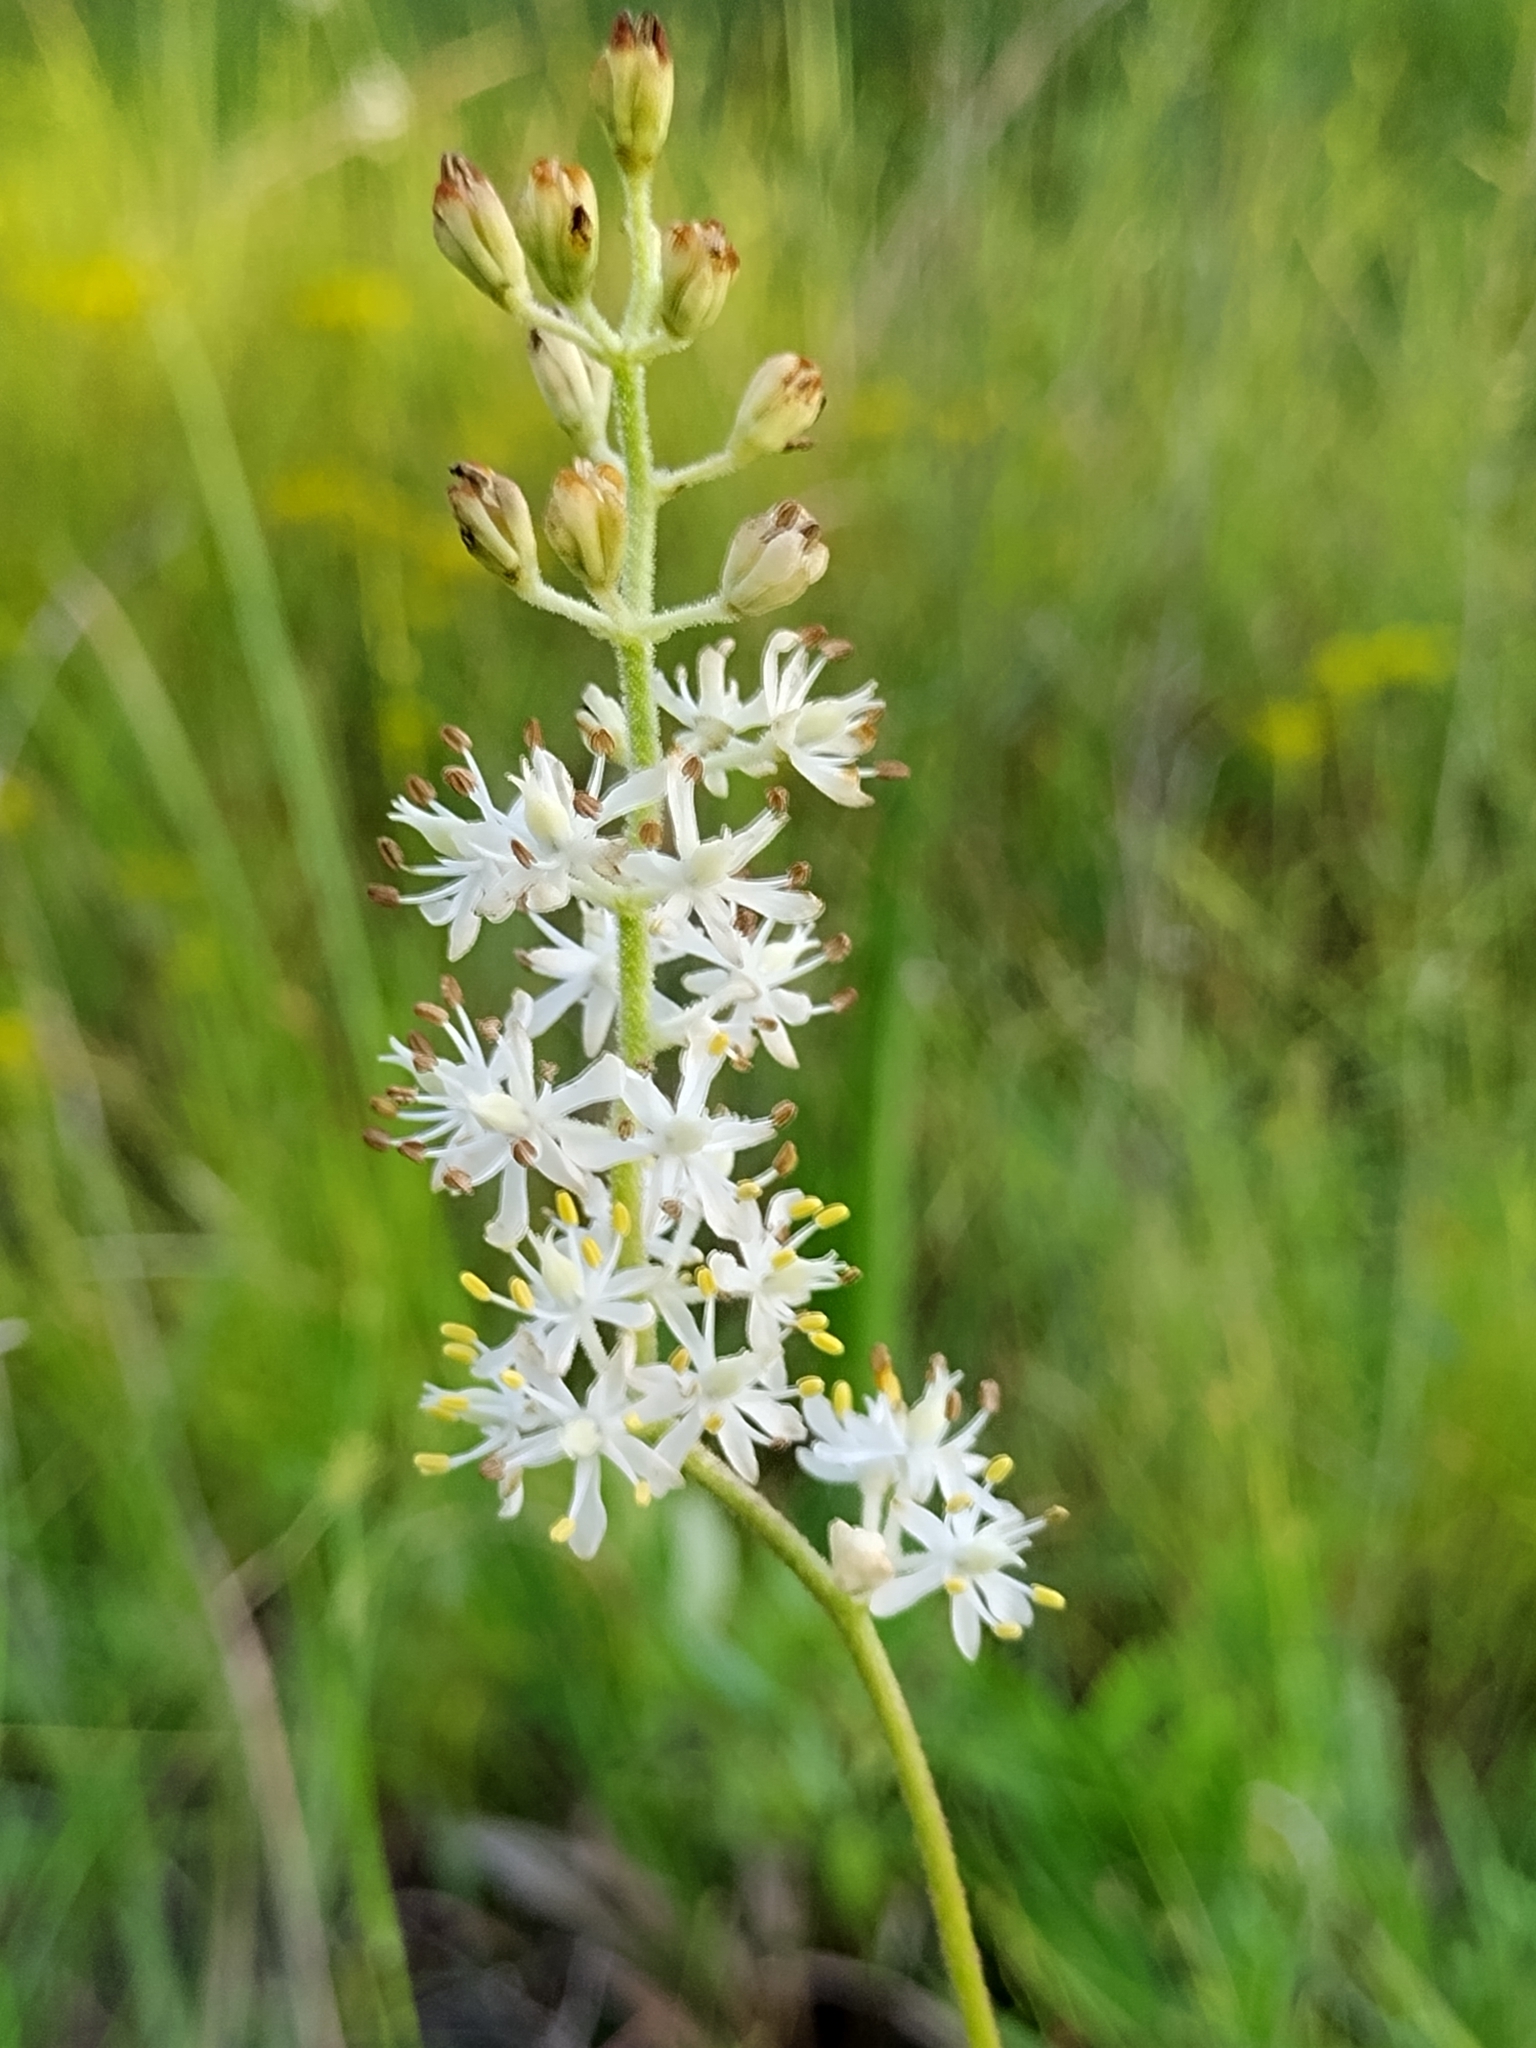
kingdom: Plantae
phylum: Tracheophyta
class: Liliopsida
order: Alismatales
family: Tofieldiaceae
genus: Triantha
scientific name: Triantha racemosa
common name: Coastal false asphodel
